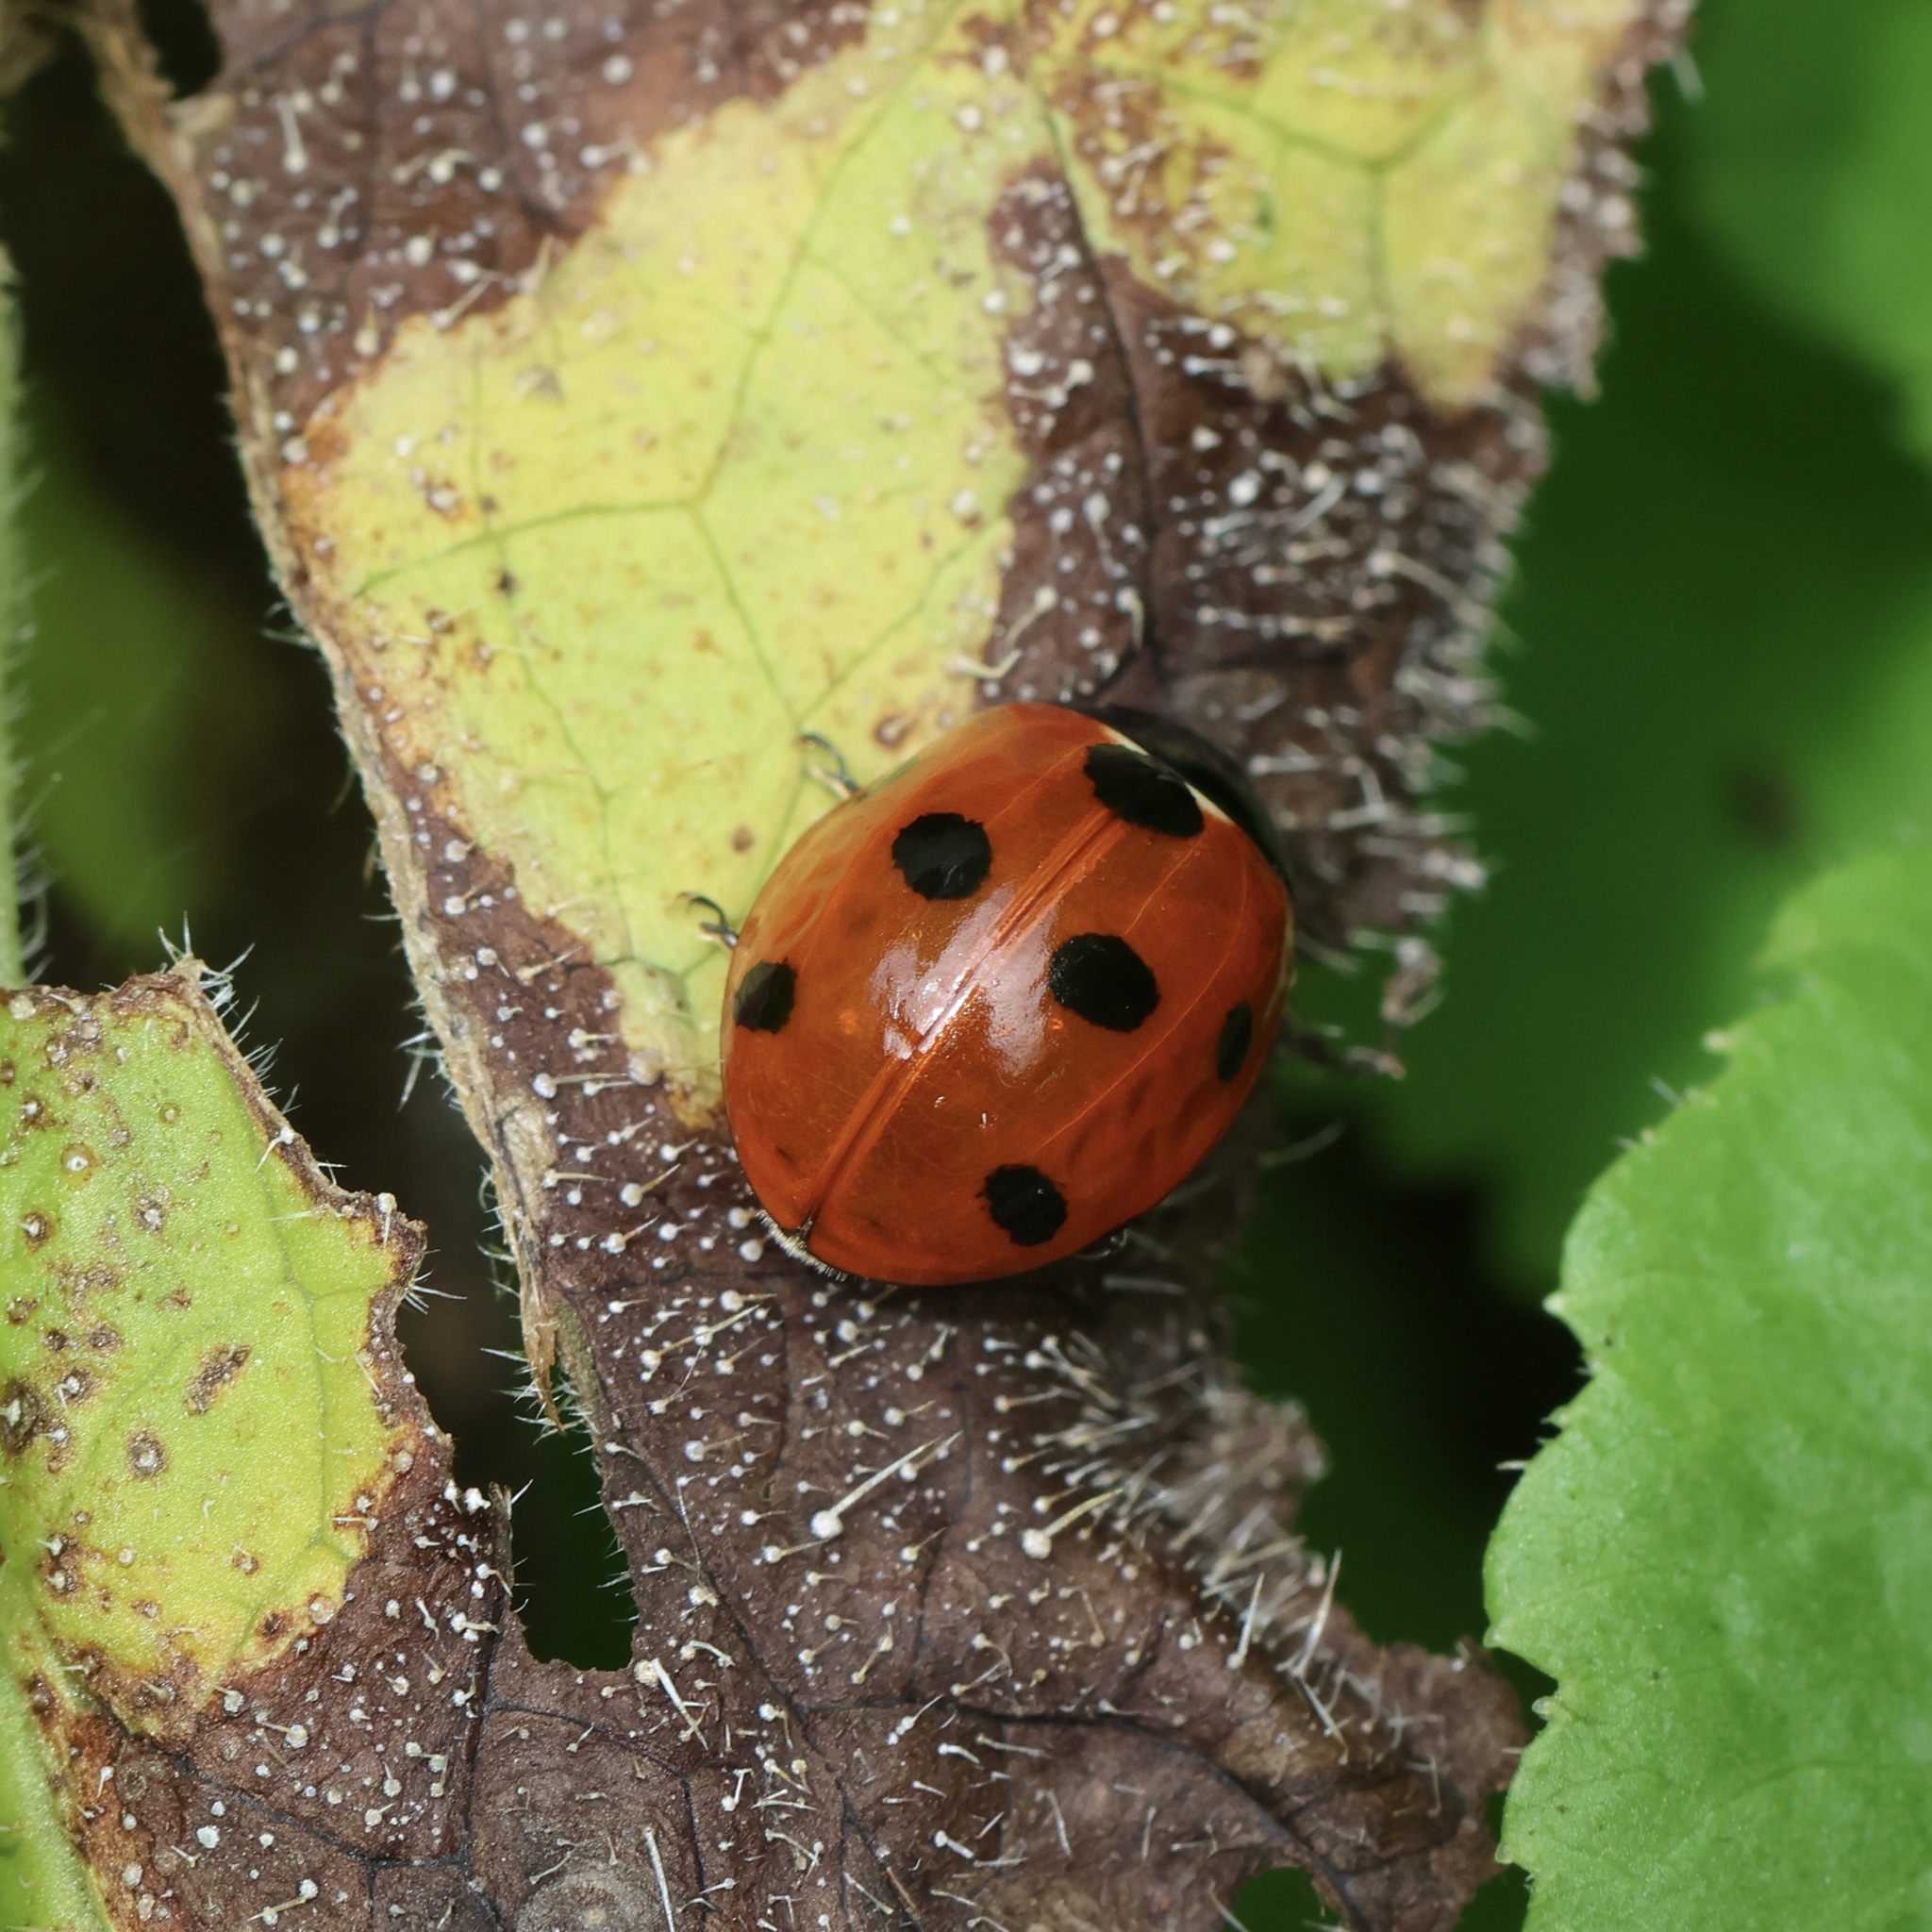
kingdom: Animalia
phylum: Arthropoda
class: Insecta
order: Coleoptera
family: Coccinellidae
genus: Coccinella
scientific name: Coccinella septempunctata
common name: Sevenspotted lady beetle
